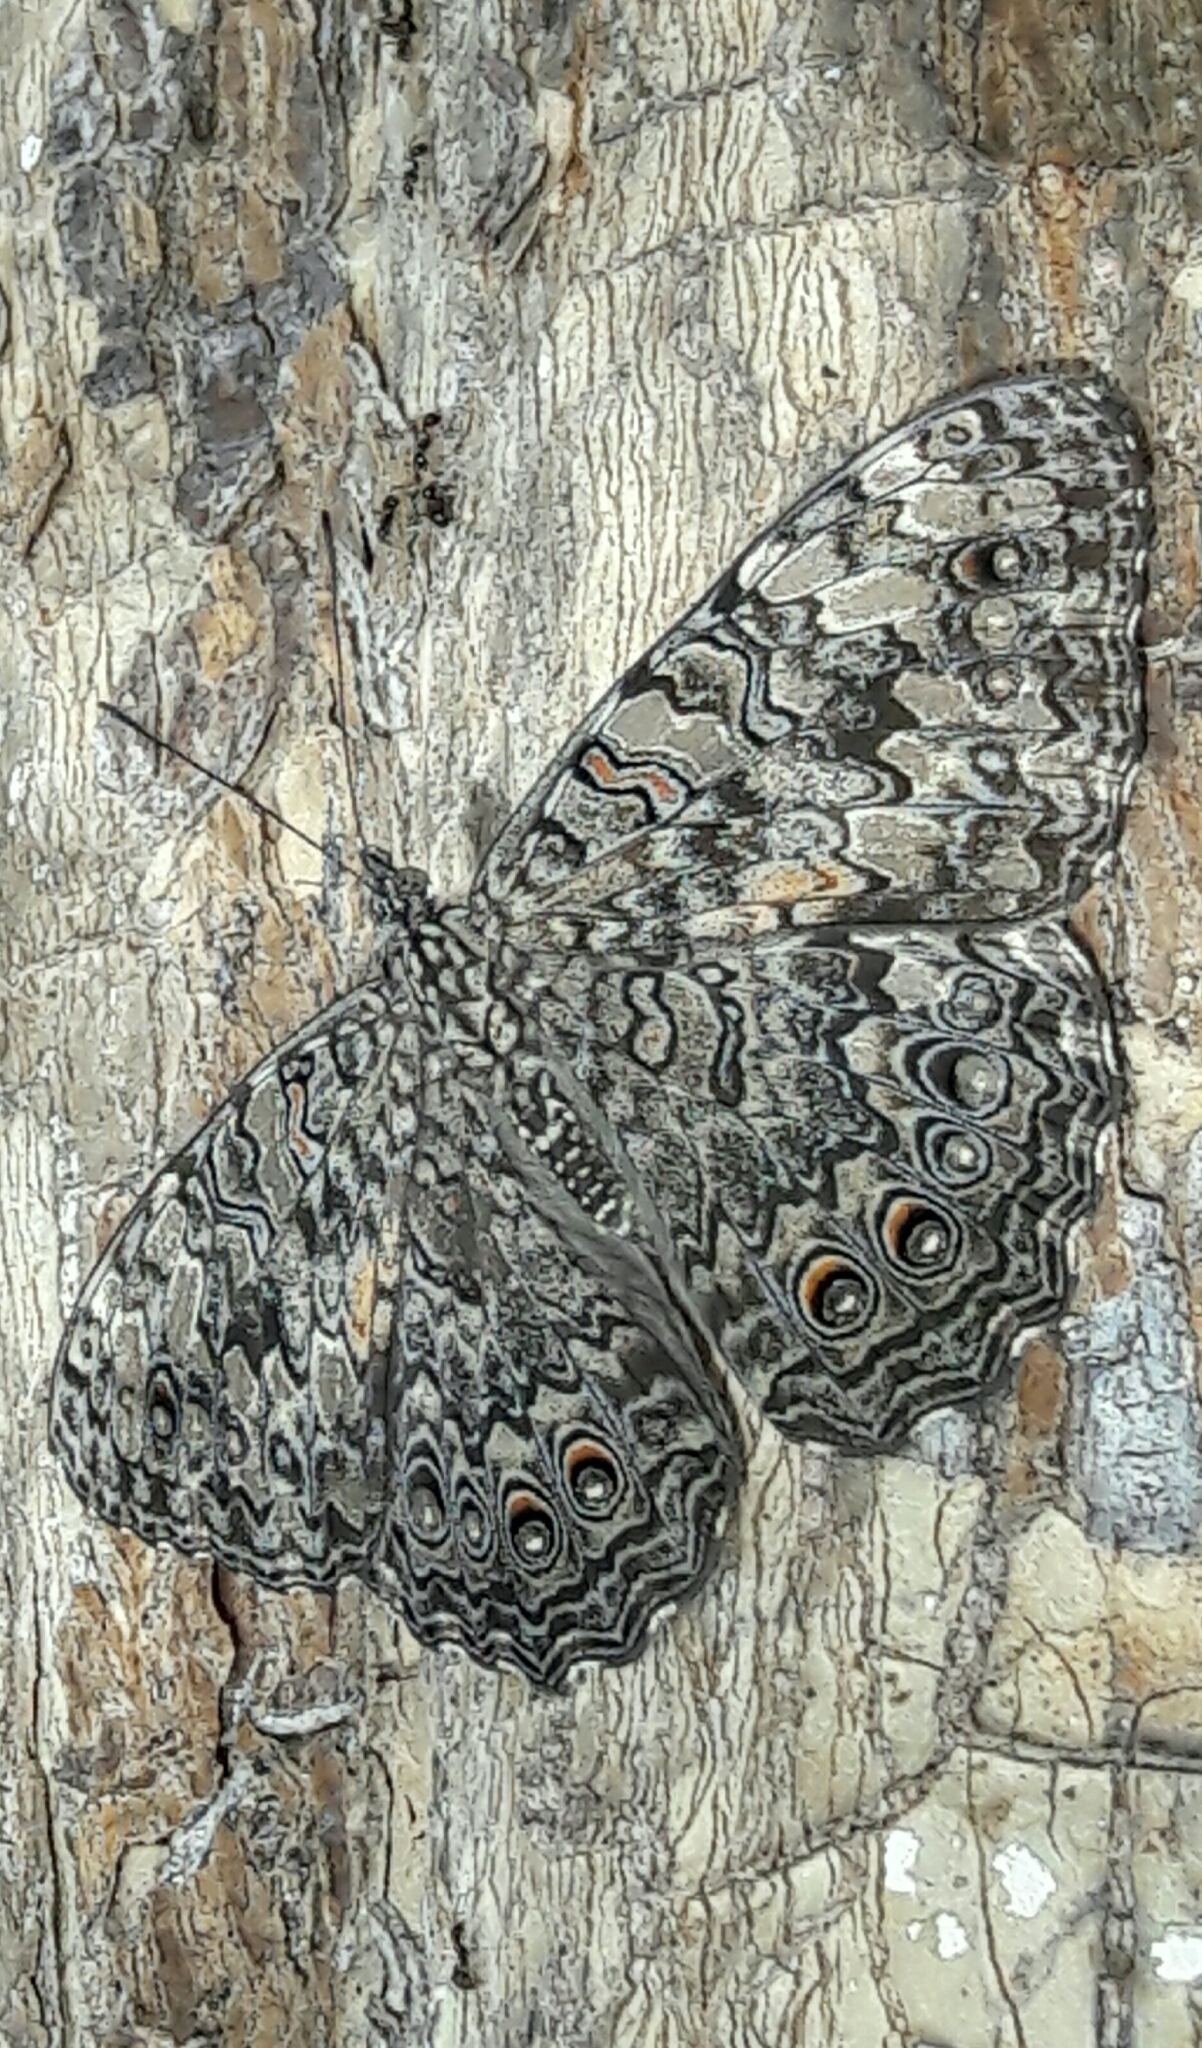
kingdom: Animalia
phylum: Arthropoda
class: Insecta
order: Lepidoptera
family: Nymphalidae
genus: Hamadryas
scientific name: Hamadryas feronia
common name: Variable cracker
